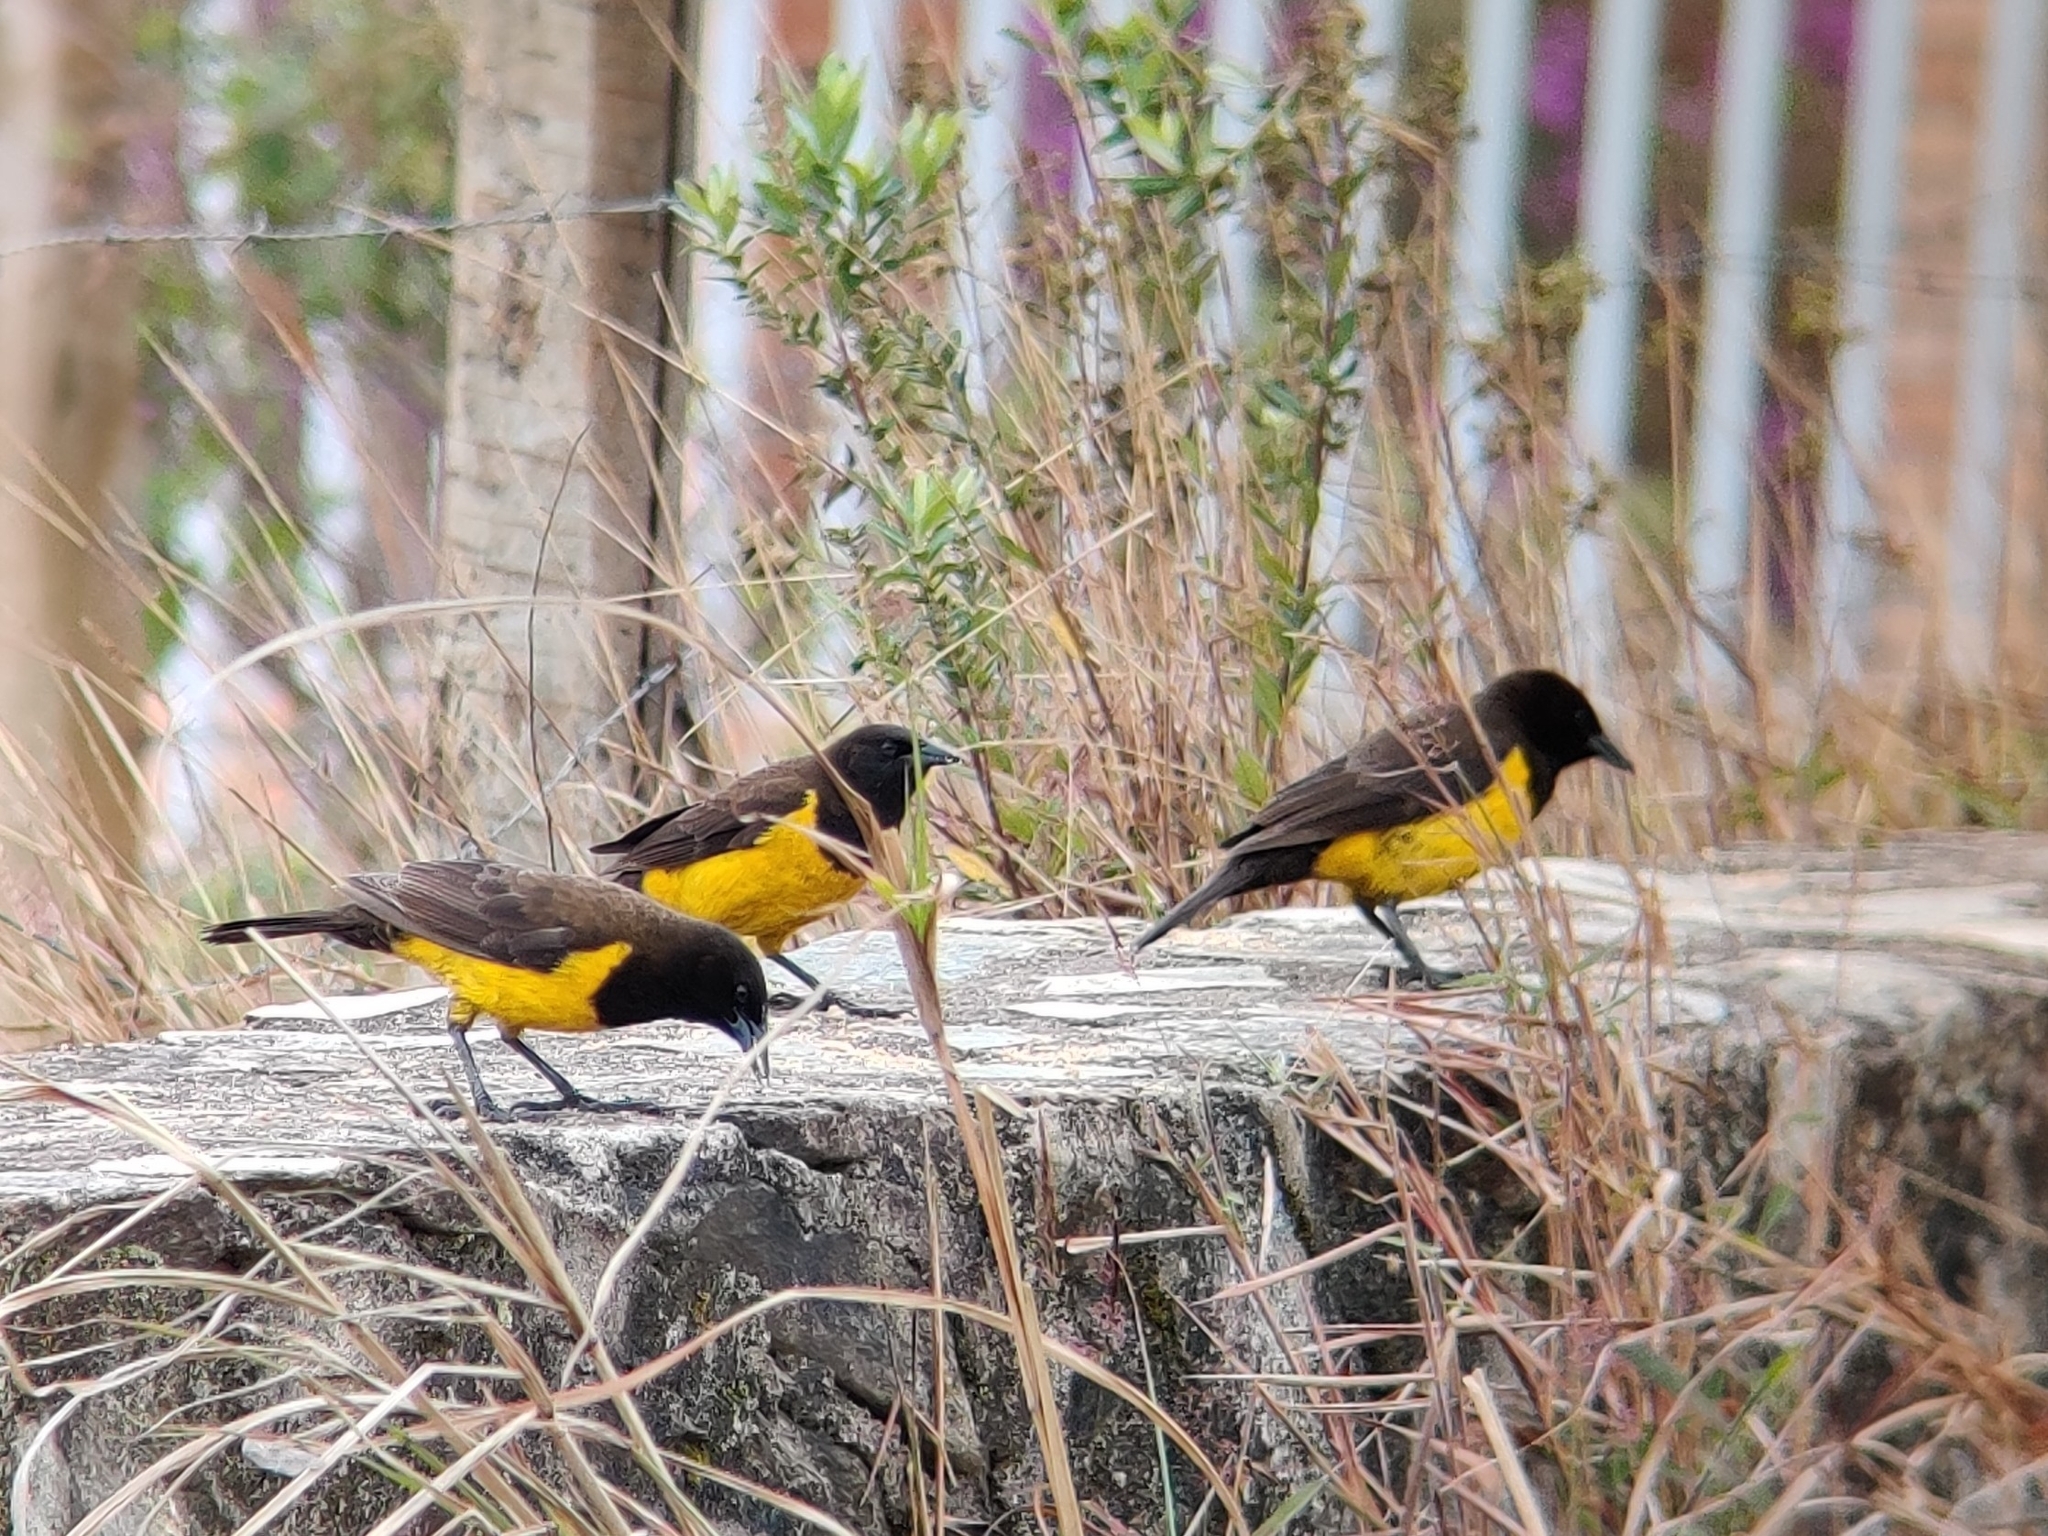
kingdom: Animalia
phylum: Chordata
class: Aves
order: Passeriformes
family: Icteridae
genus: Pseudoleistes
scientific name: Pseudoleistes guirahuro
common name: Yellow-rumped marshbird
